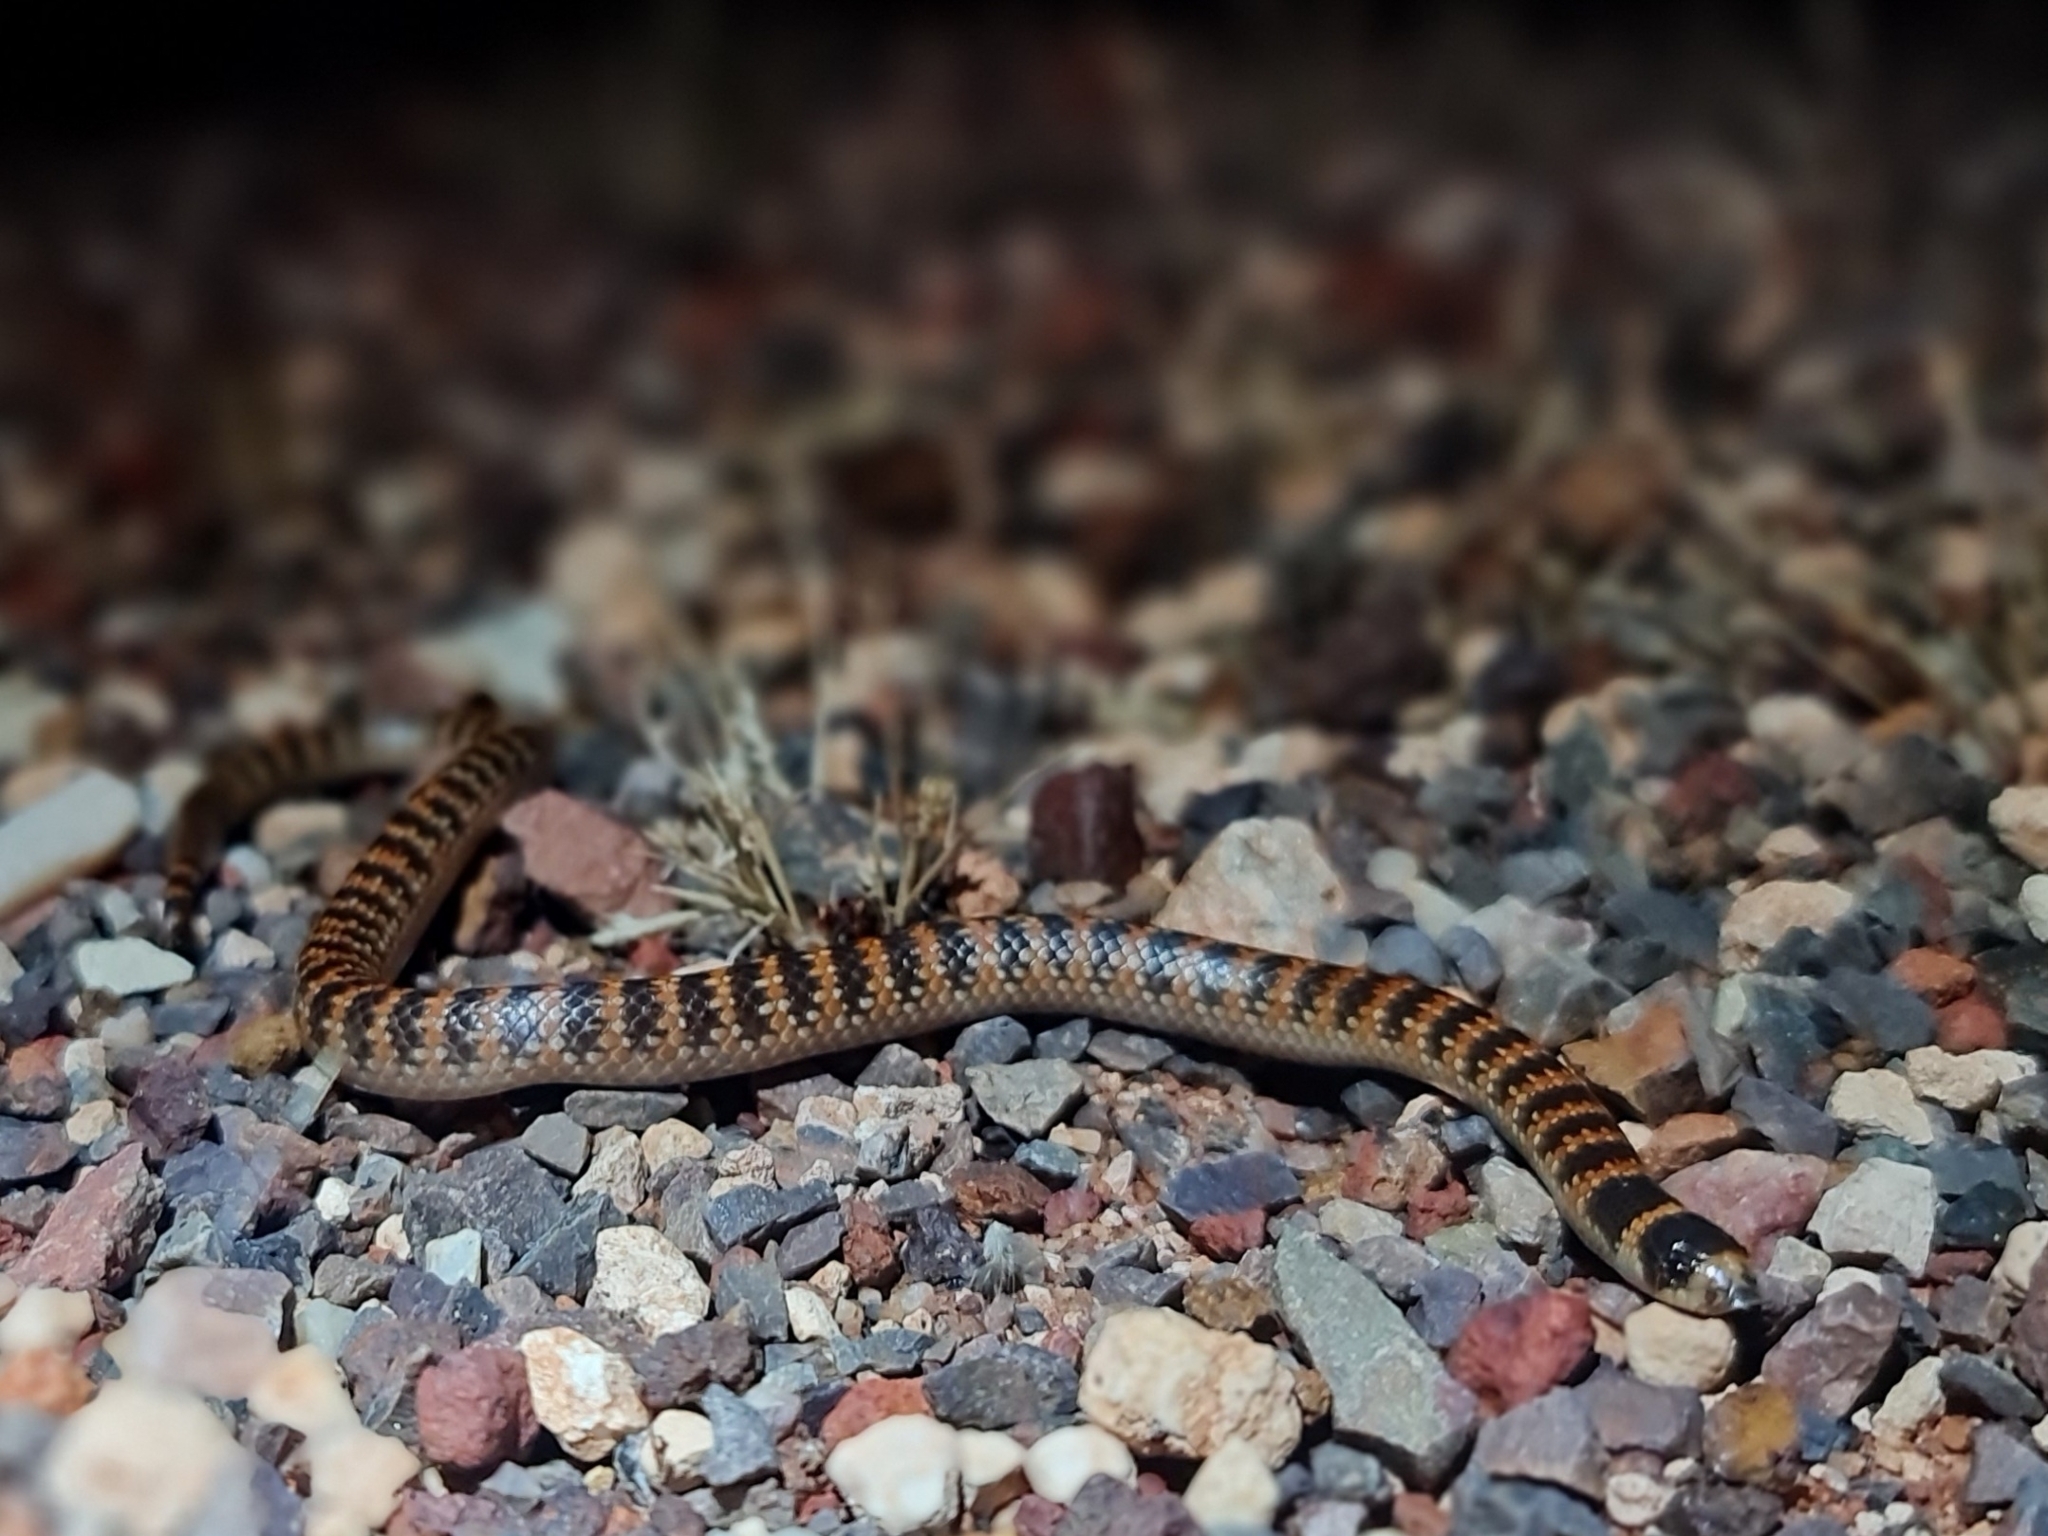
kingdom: Animalia
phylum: Chordata
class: Squamata
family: Elapidae
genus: Brachyurophis
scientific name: Brachyurophis semifasciatus
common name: Half-girdled snake
